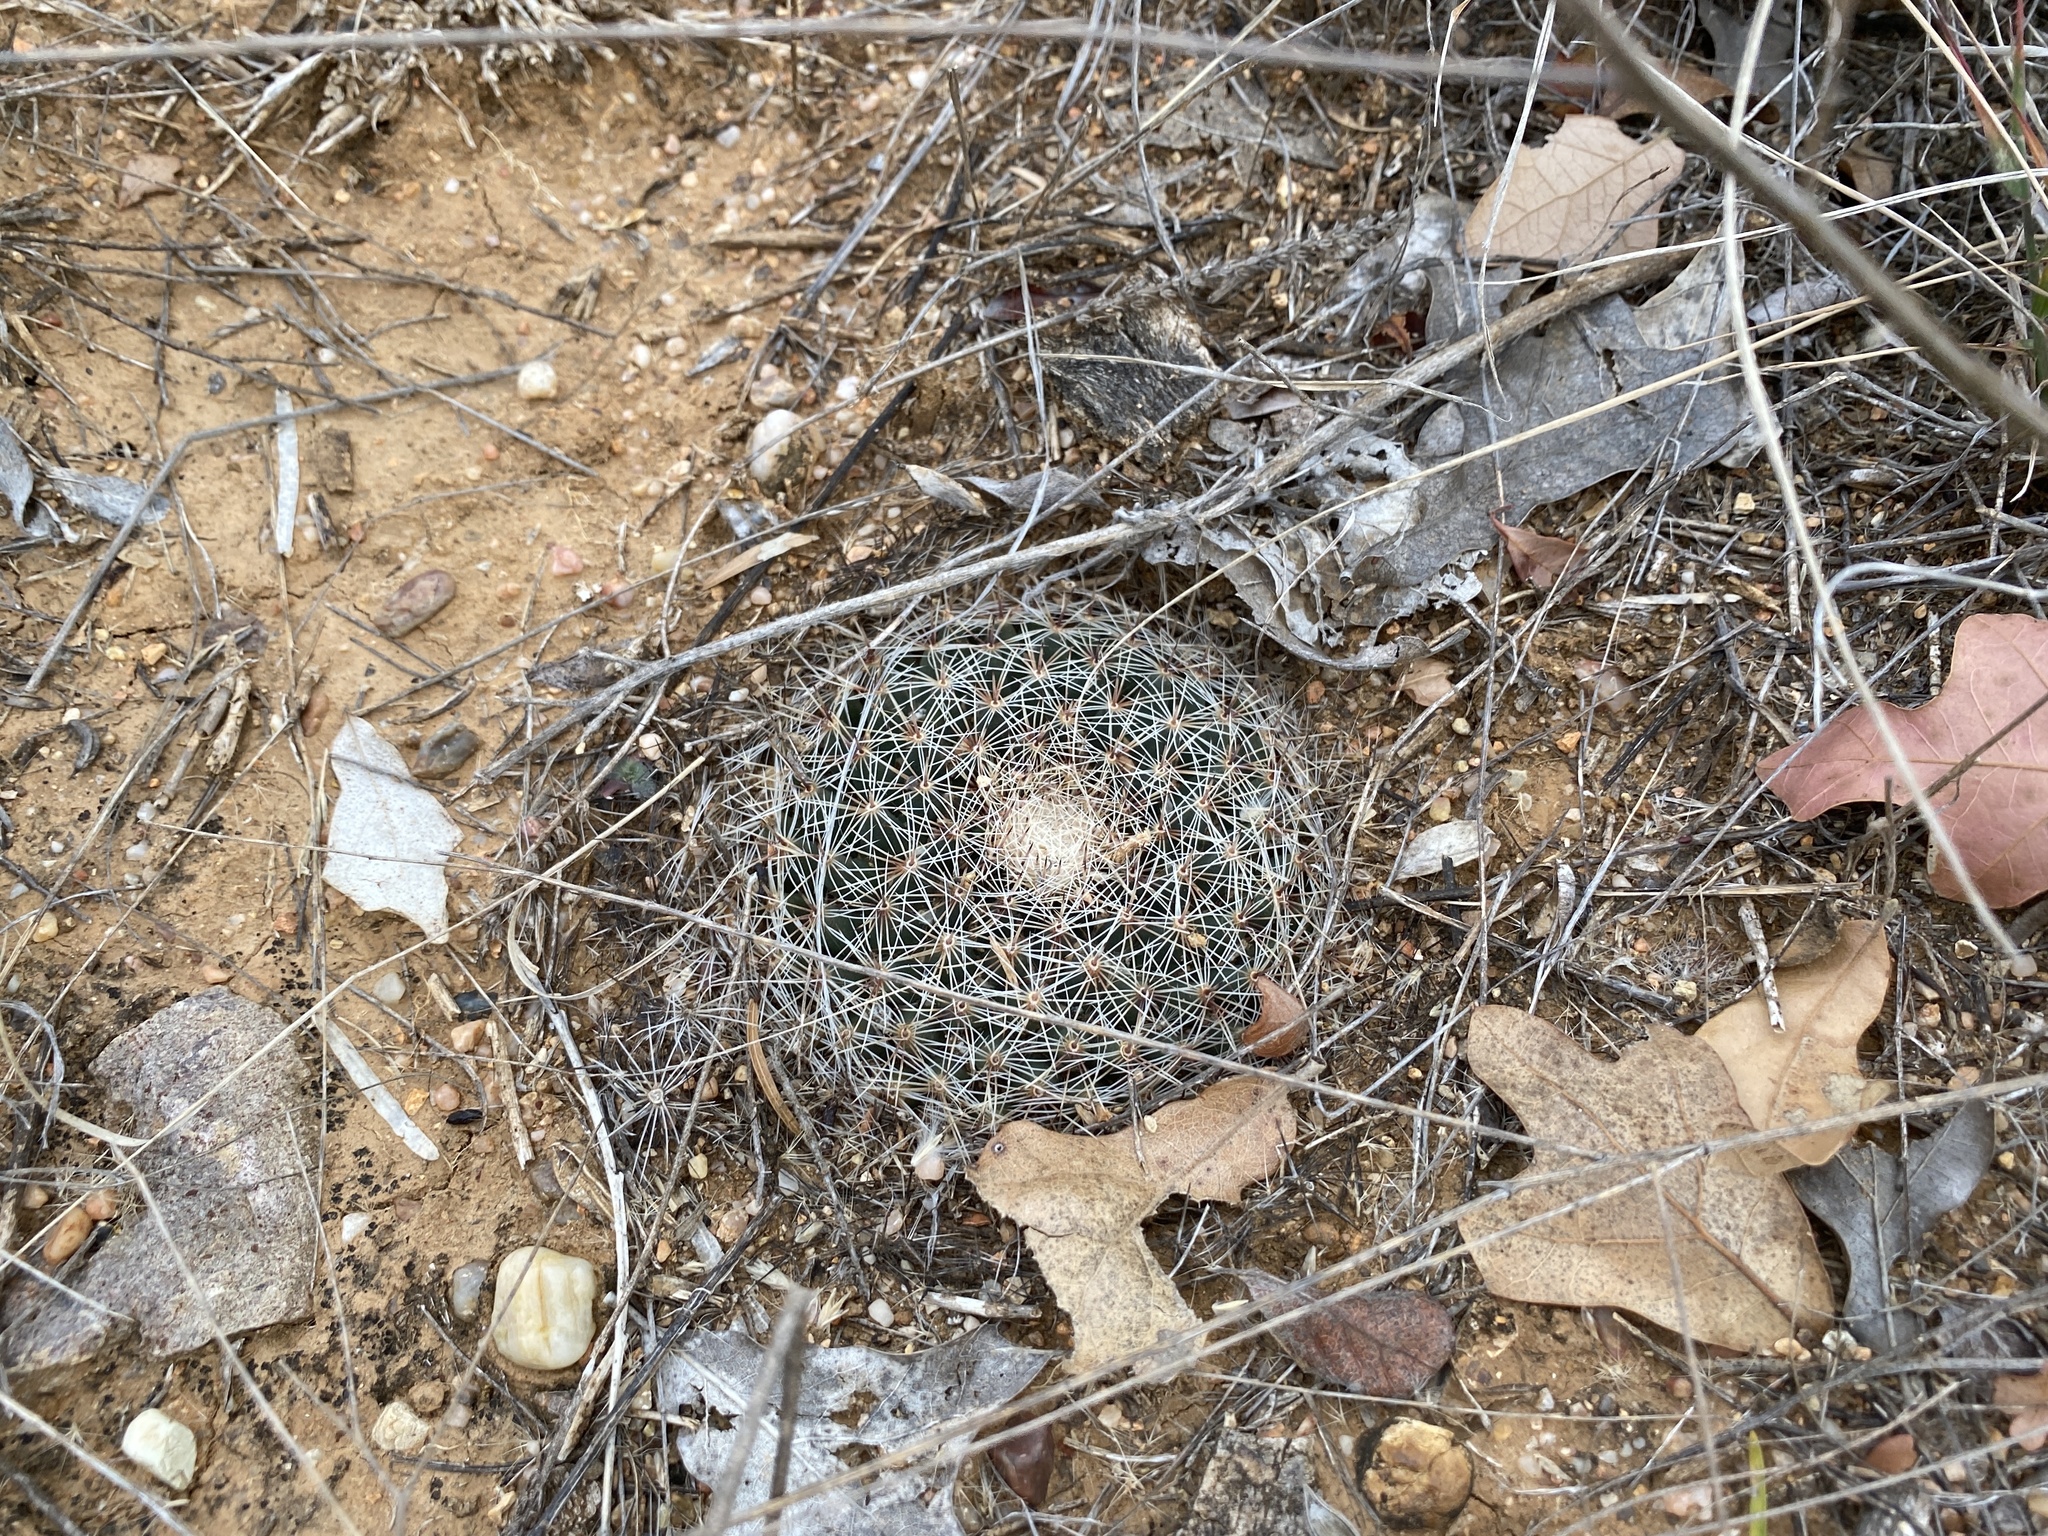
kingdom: Plantae
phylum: Tracheophyta
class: Magnoliopsida
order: Caryophyllales
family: Cactaceae
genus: Mammillaria
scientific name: Mammillaria heyderi
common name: Little nipple cactus
